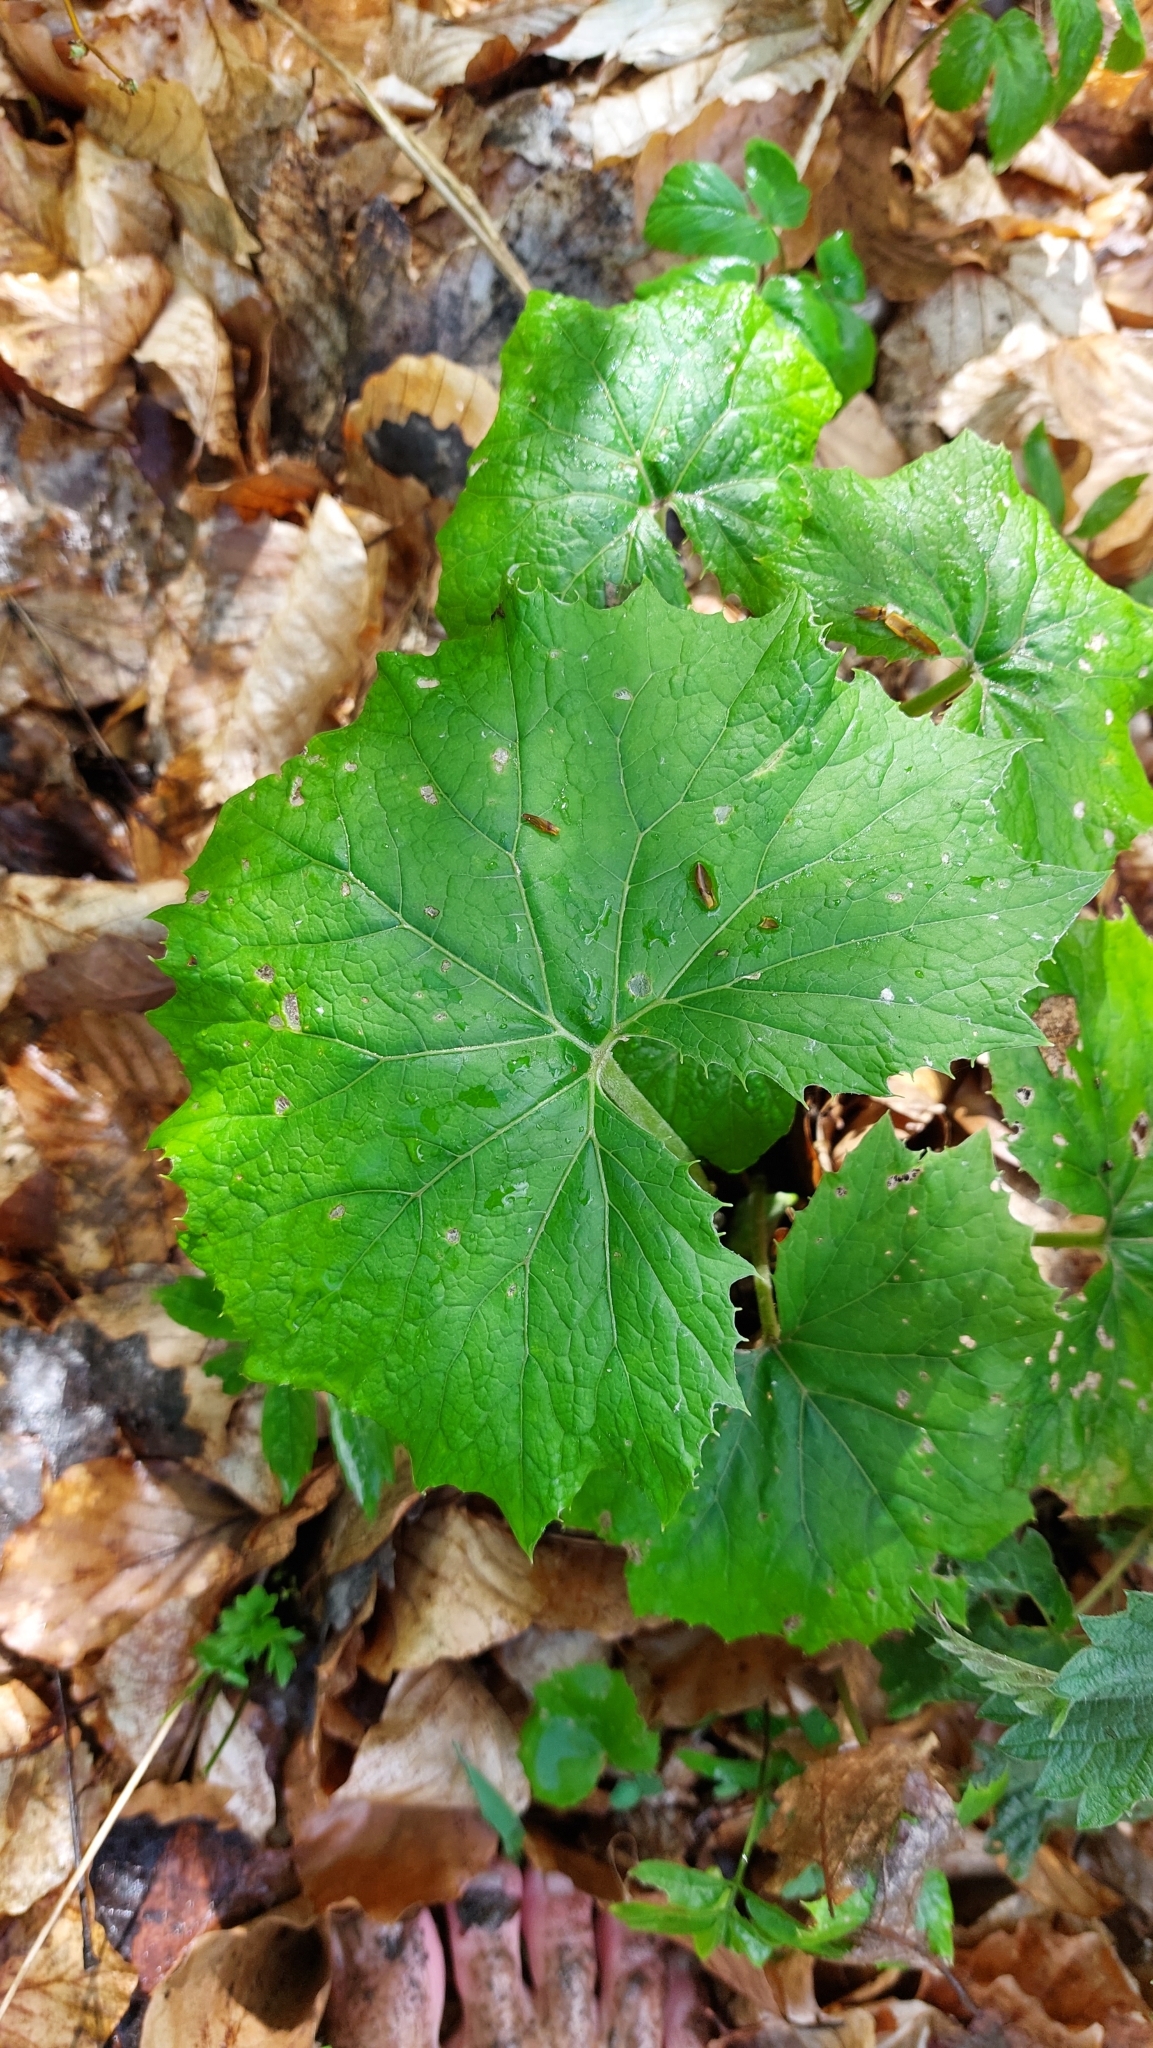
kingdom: Plantae
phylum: Tracheophyta
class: Magnoliopsida
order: Asterales
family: Asteraceae
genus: Petasites
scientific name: Petasites albus
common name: White butterbur
